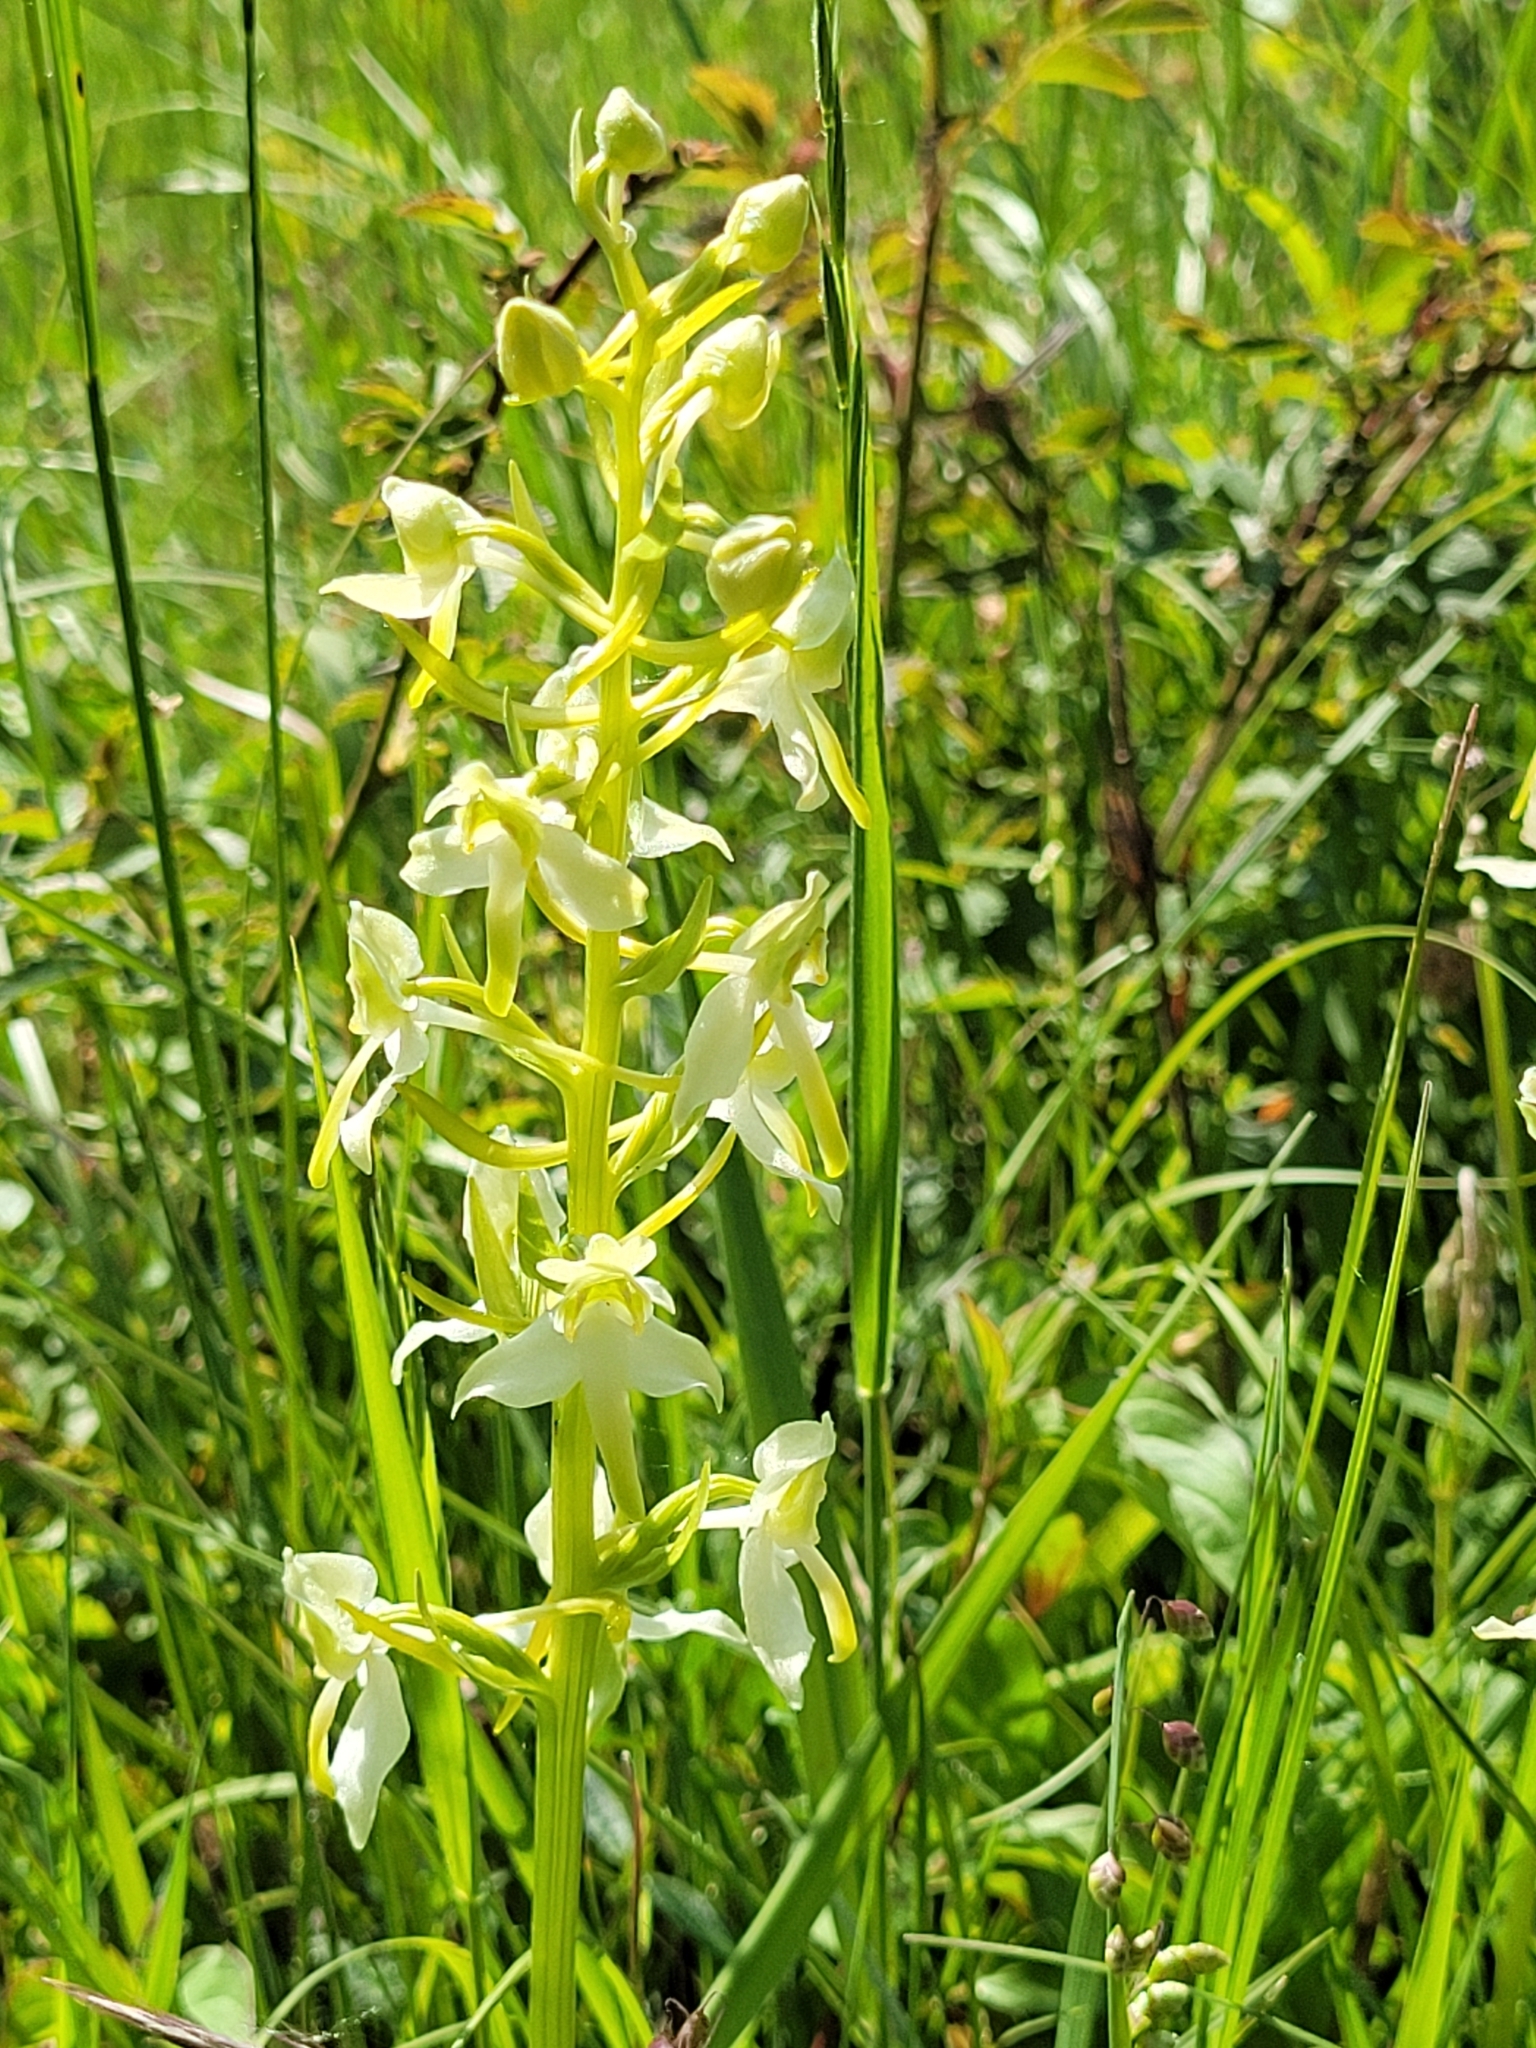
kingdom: Plantae
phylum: Tracheophyta
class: Liliopsida
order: Asparagales
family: Orchidaceae
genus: Platanthera
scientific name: Platanthera chlorantha
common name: Greater butterfly-orchid
